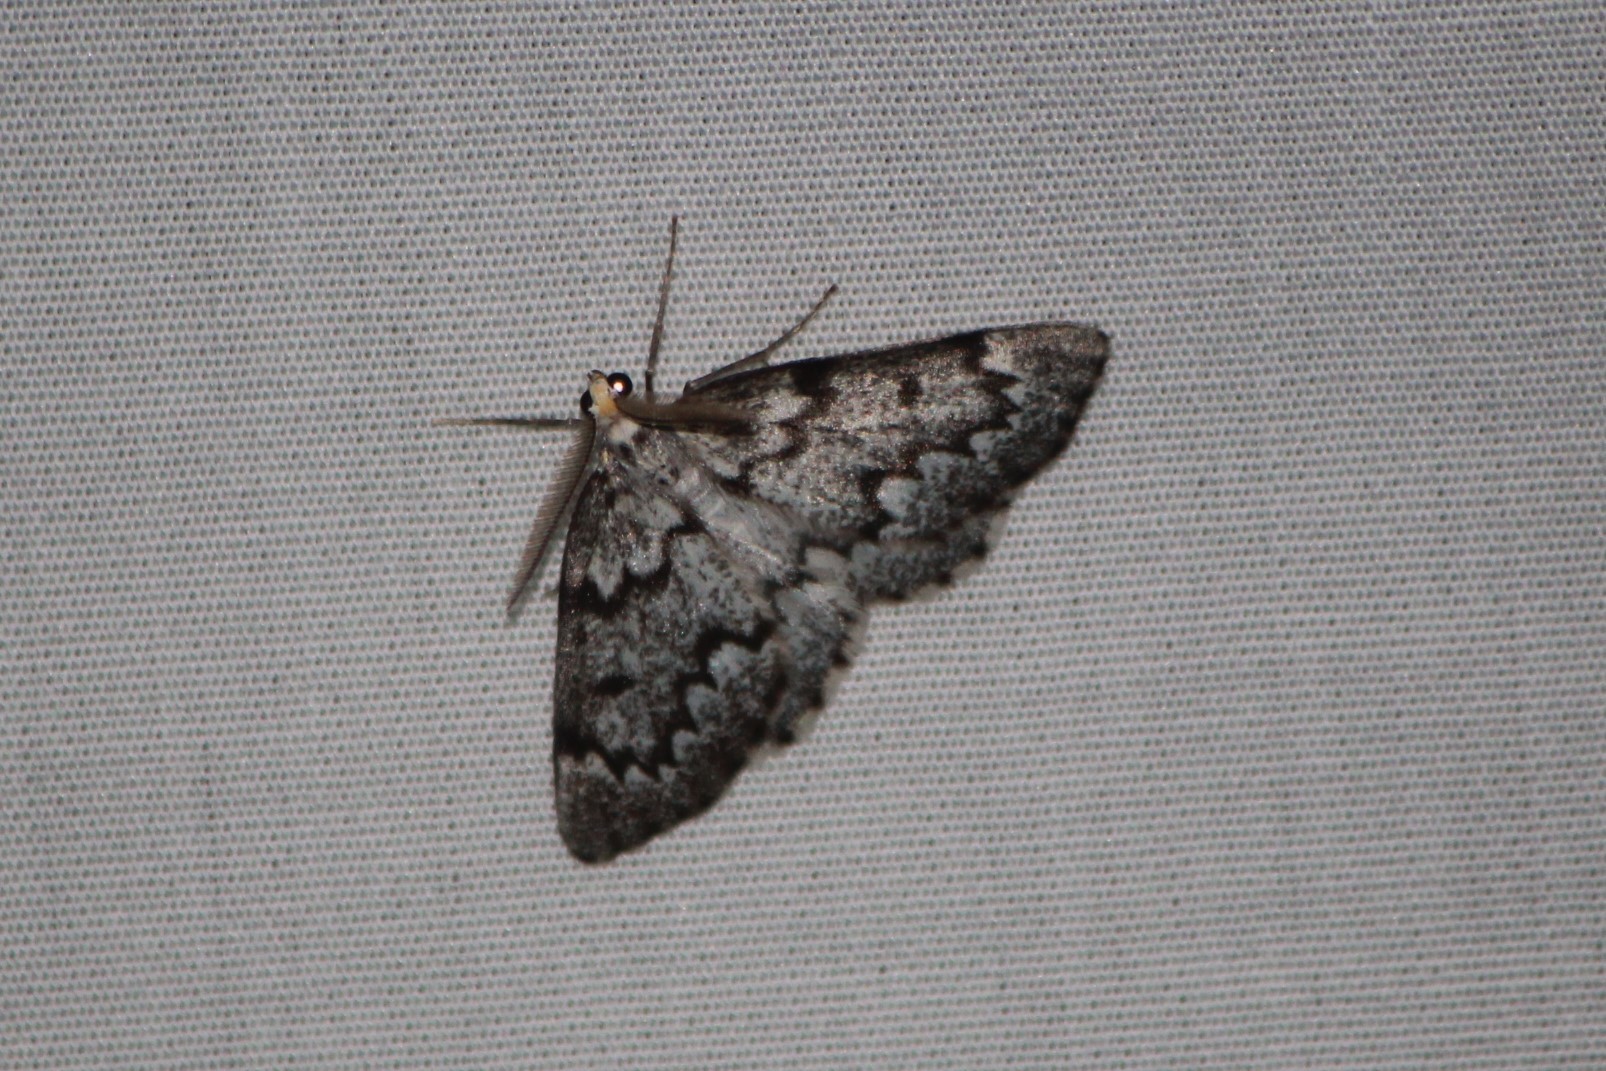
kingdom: Animalia
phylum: Arthropoda
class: Insecta
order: Lepidoptera
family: Geometridae
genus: Nepytia
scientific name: Nepytia canosaria
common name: False hemlock looper
